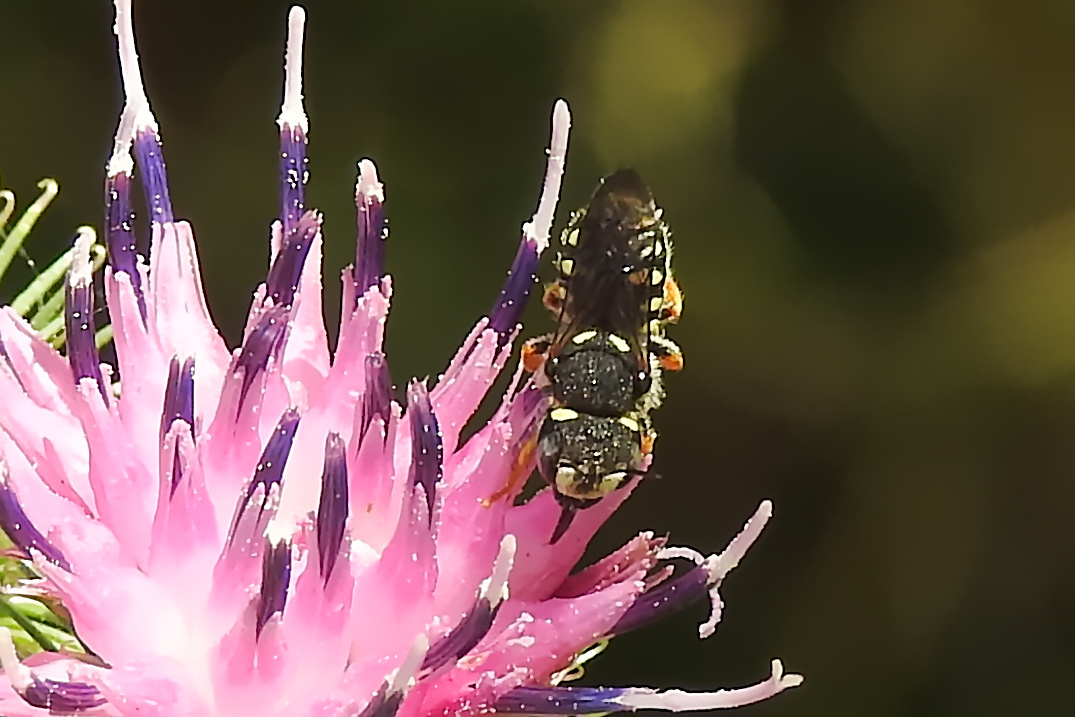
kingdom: Animalia
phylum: Arthropoda
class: Insecta
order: Hymenoptera
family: Megachilidae
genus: Pseudoanthidium
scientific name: Pseudoanthidium nanum
